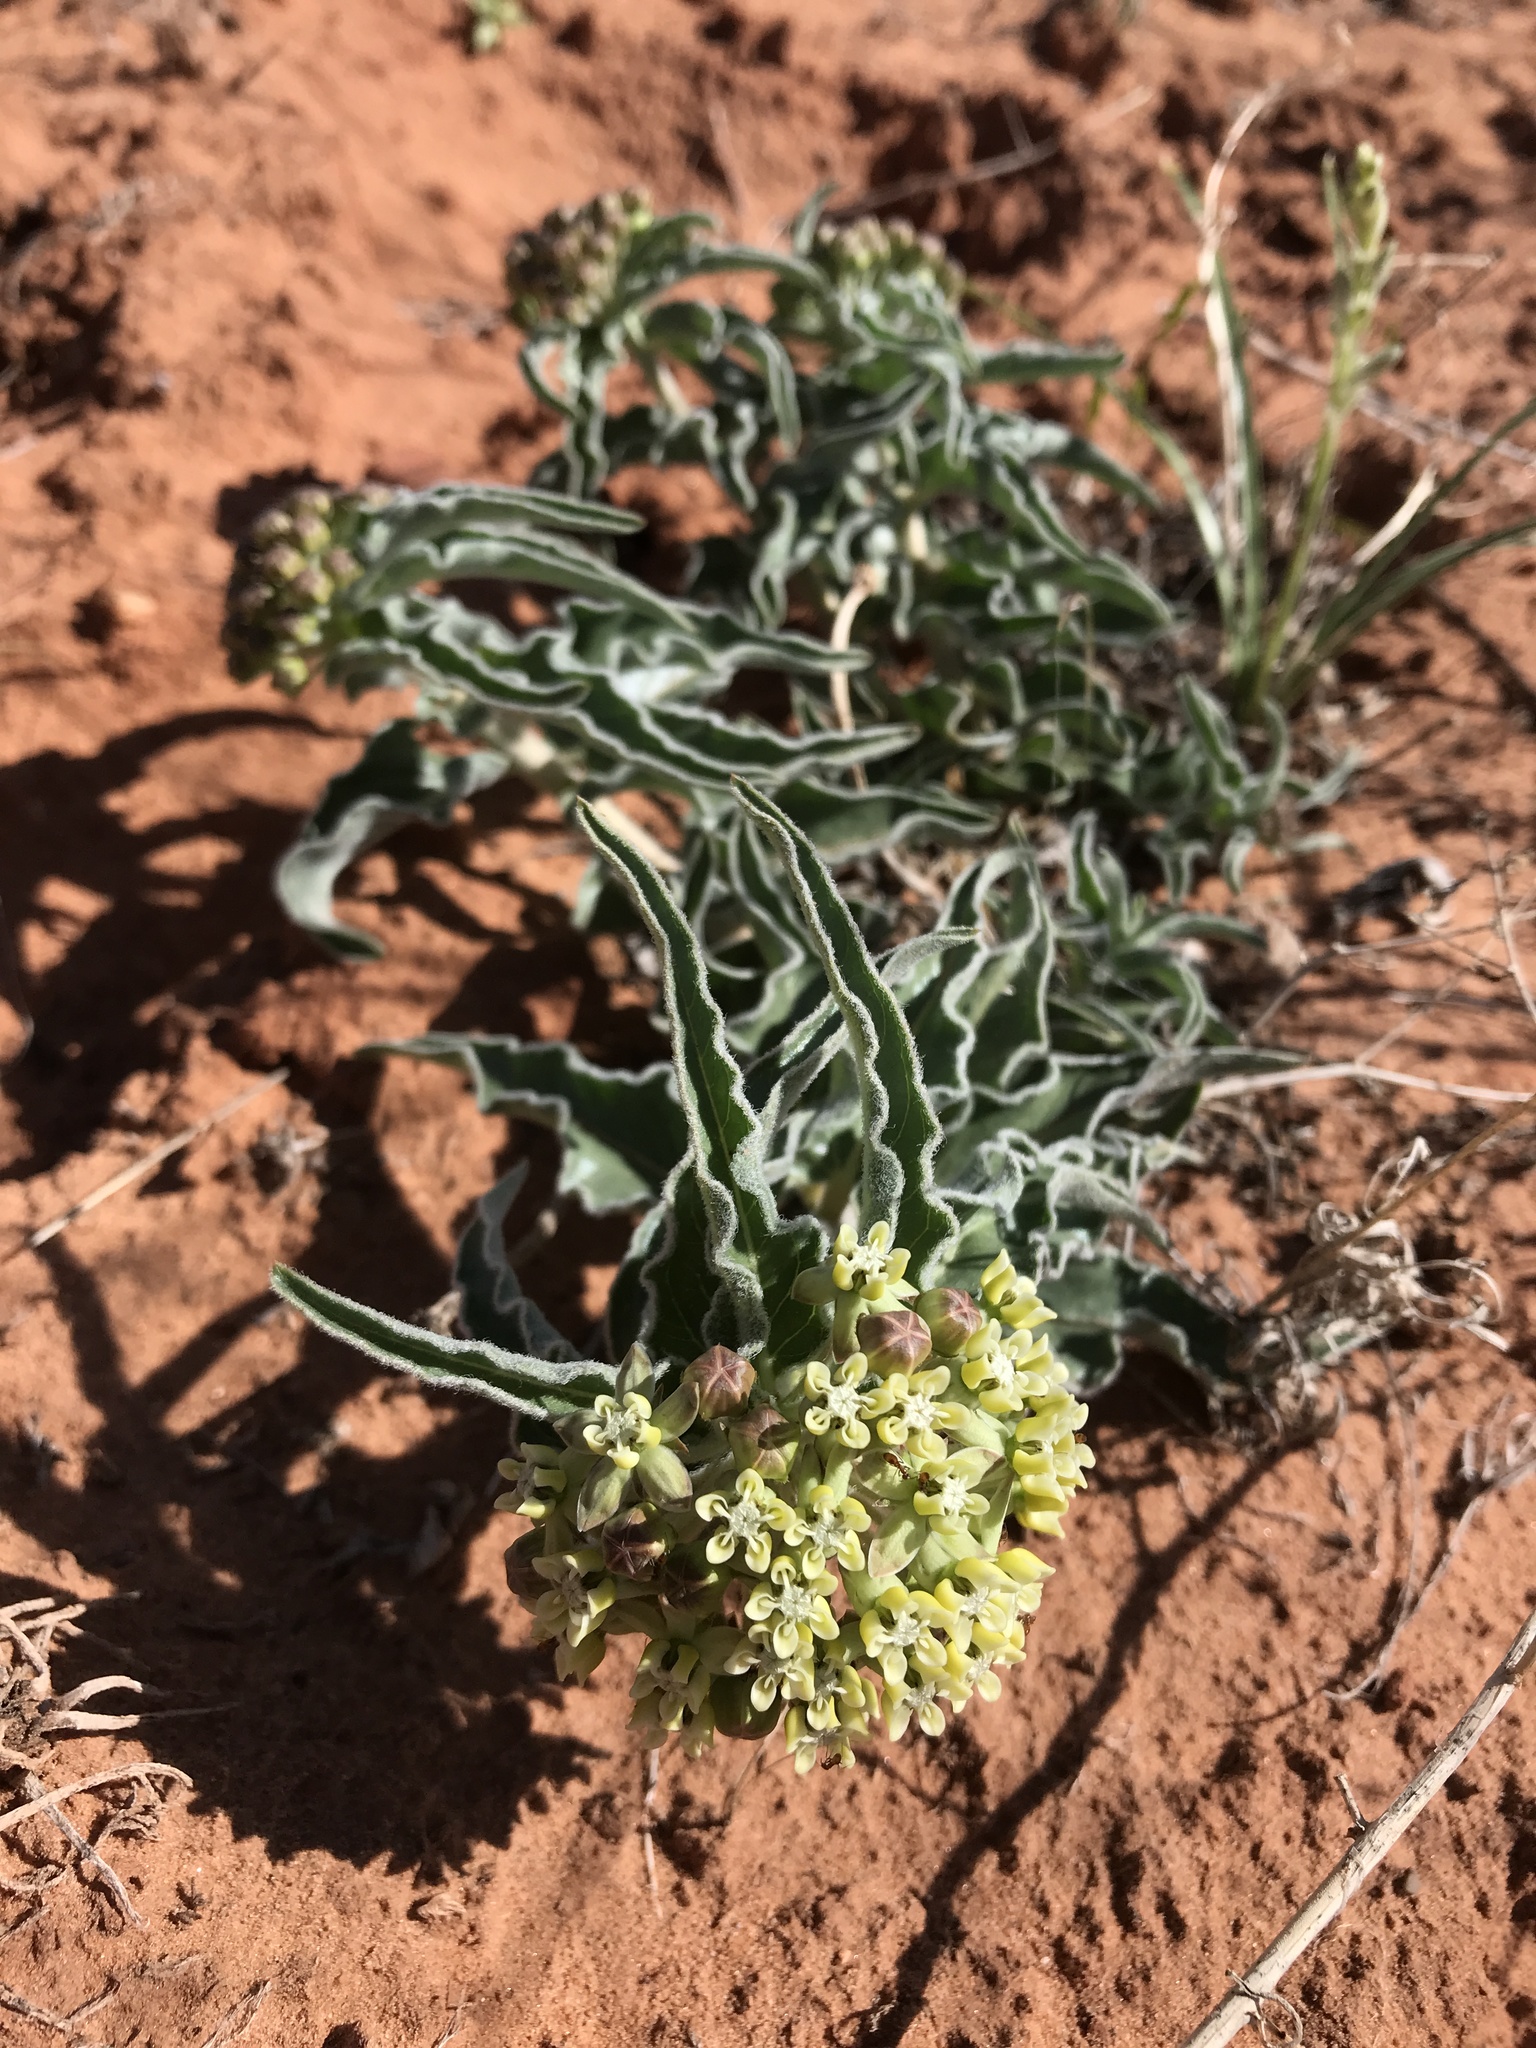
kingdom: Plantae
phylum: Tracheophyta
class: Magnoliopsida
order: Gentianales
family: Apocynaceae
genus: Asclepias
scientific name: Asclepias involucrata
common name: Dwarf milkweed
